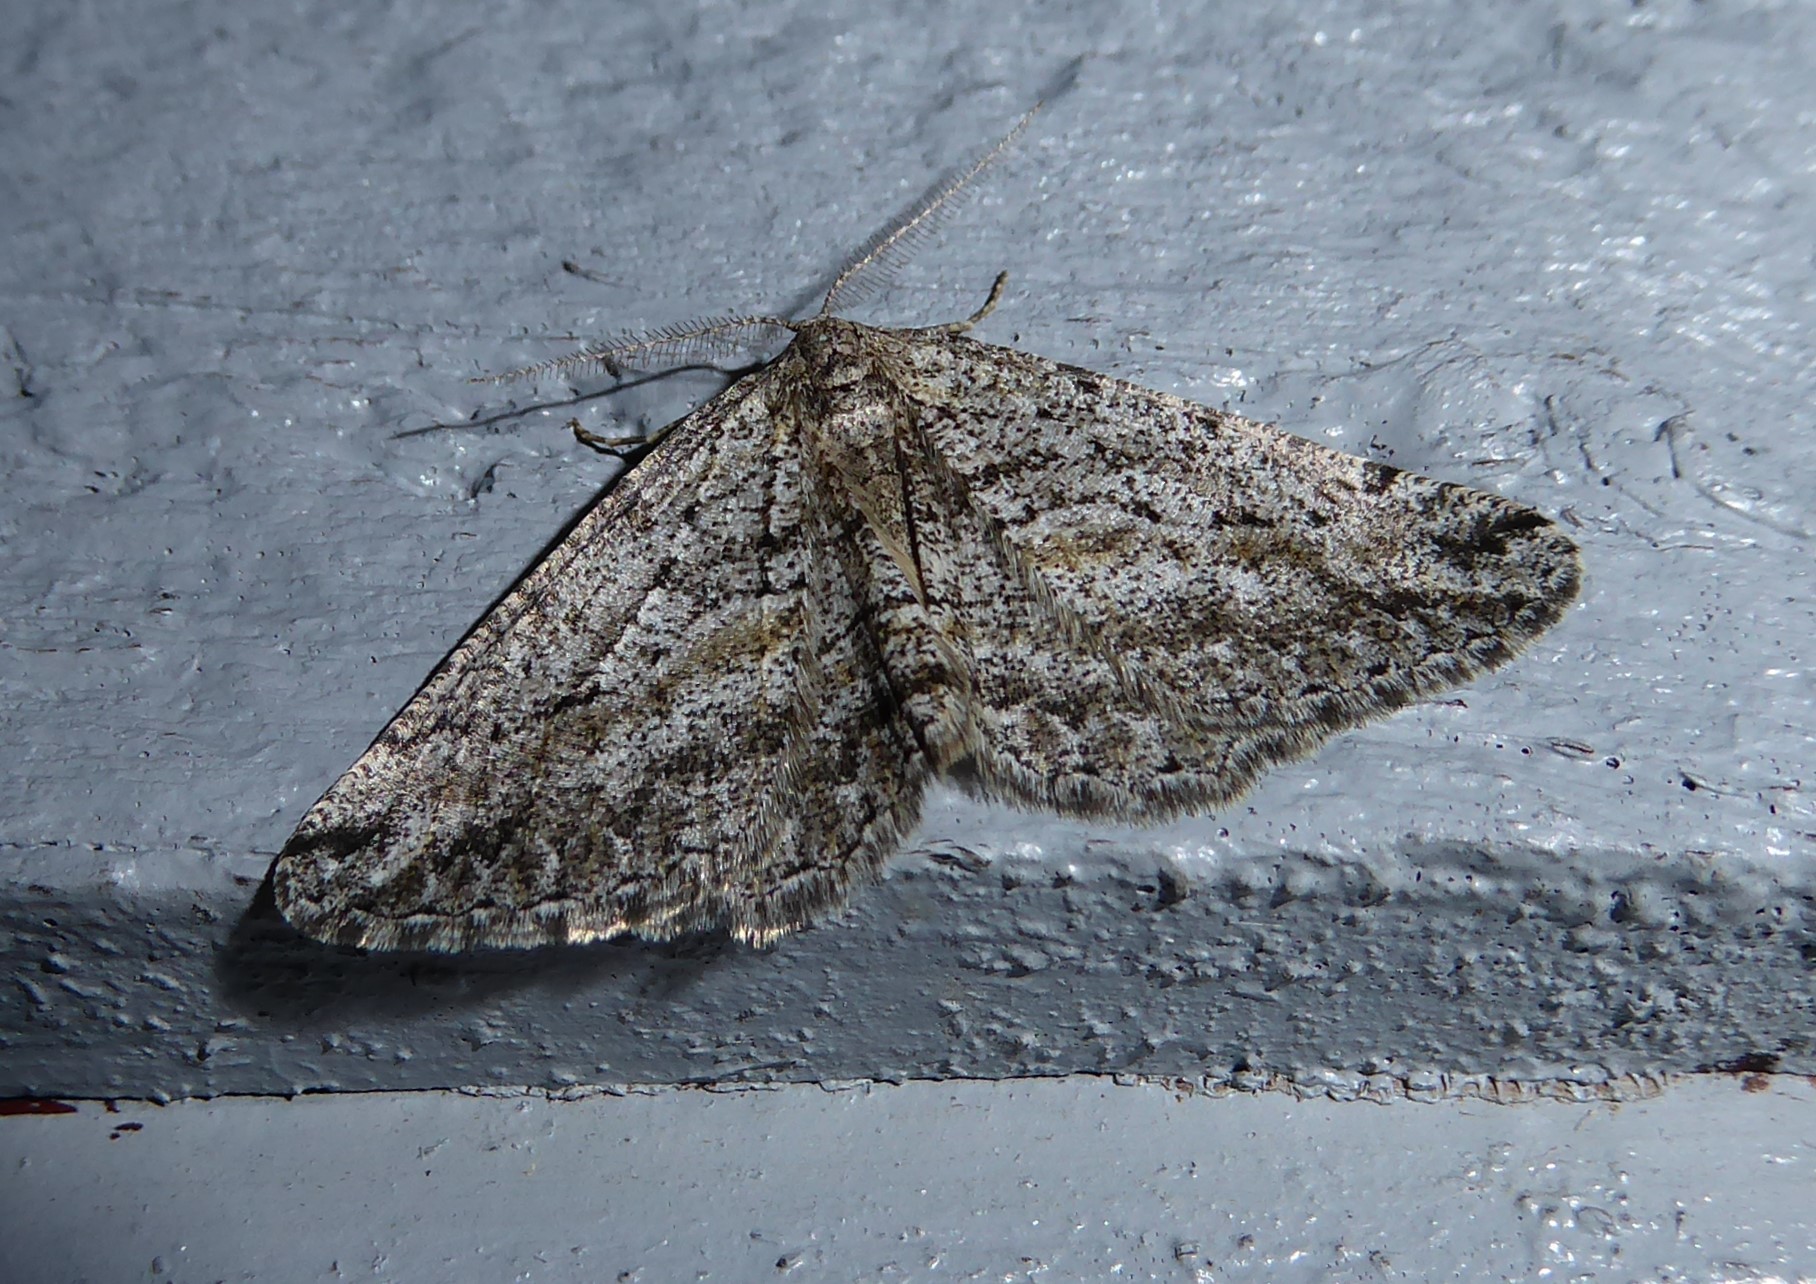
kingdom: Animalia
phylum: Arthropoda
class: Insecta
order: Lepidoptera
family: Geometridae
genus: Zermizinga
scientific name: Zermizinga indocilisaria
